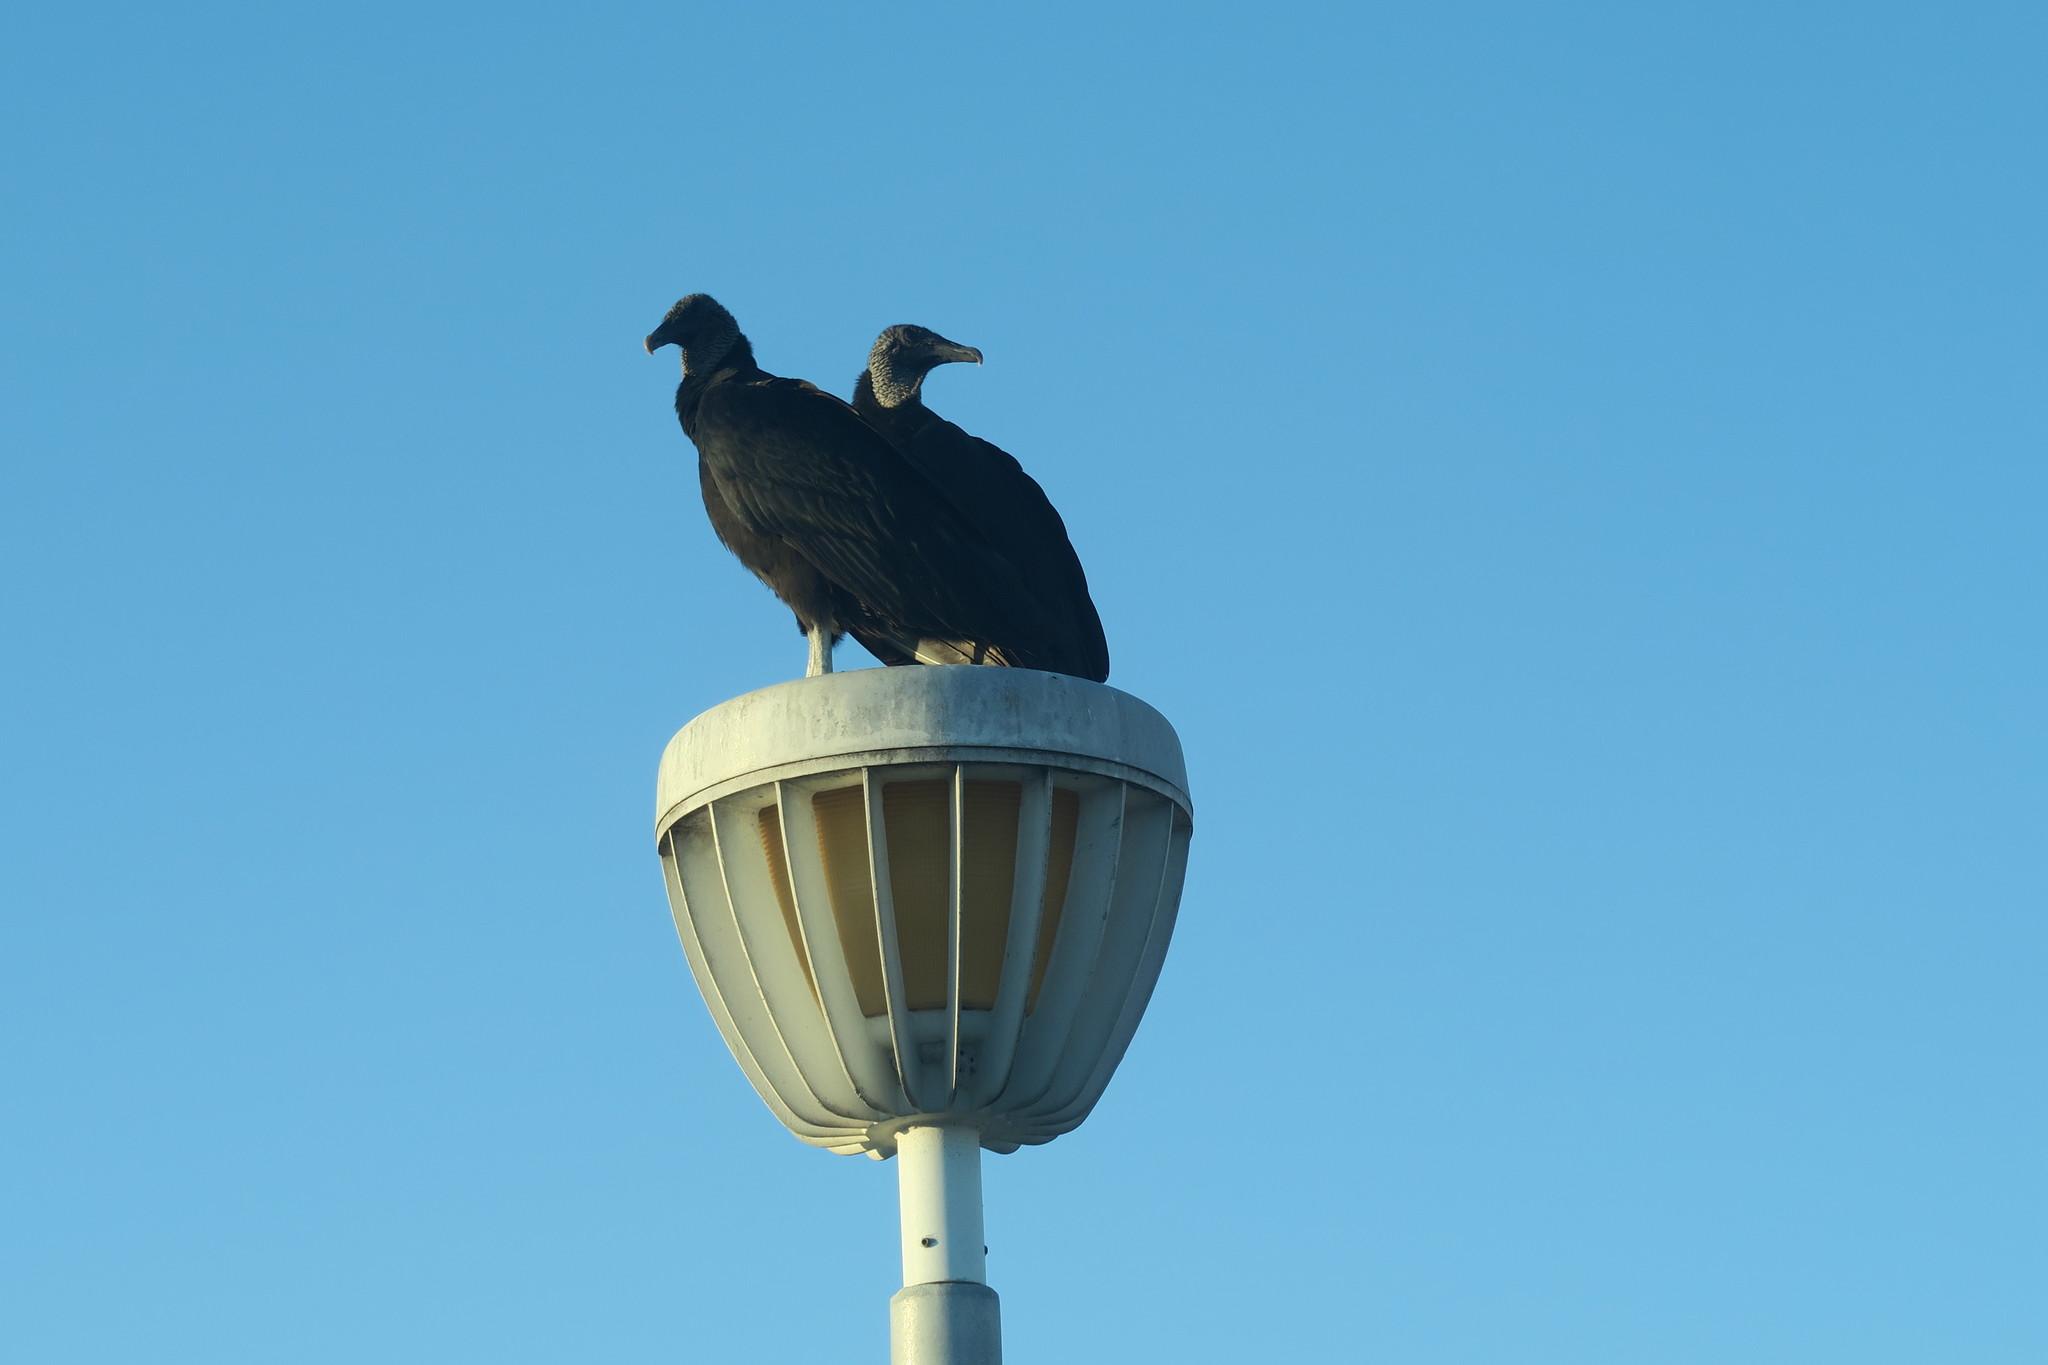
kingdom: Animalia
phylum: Chordata
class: Aves
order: Accipitriformes
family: Cathartidae
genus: Coragyps
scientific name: Coragyps atratus
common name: Black vulture
